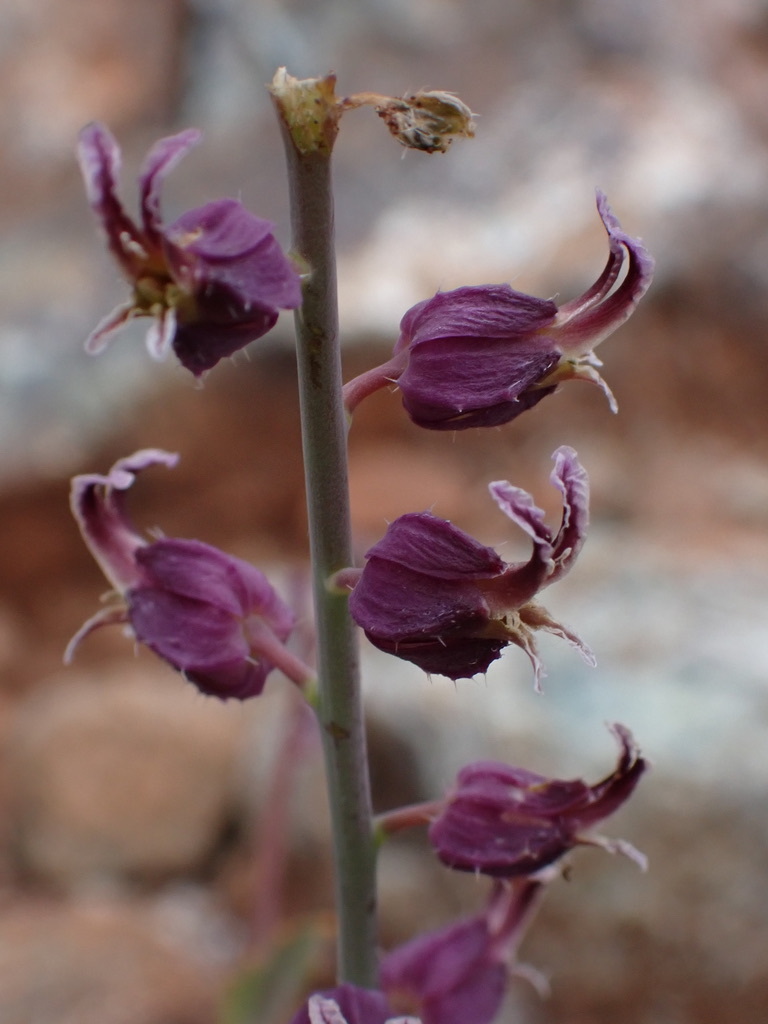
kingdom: Plantae
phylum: Tracheophyta
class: Magnoliopsida
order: Brassicales
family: Brassicaceae
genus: Streptanthus
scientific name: Streptanthus glandulosus
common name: Jewel-flower
